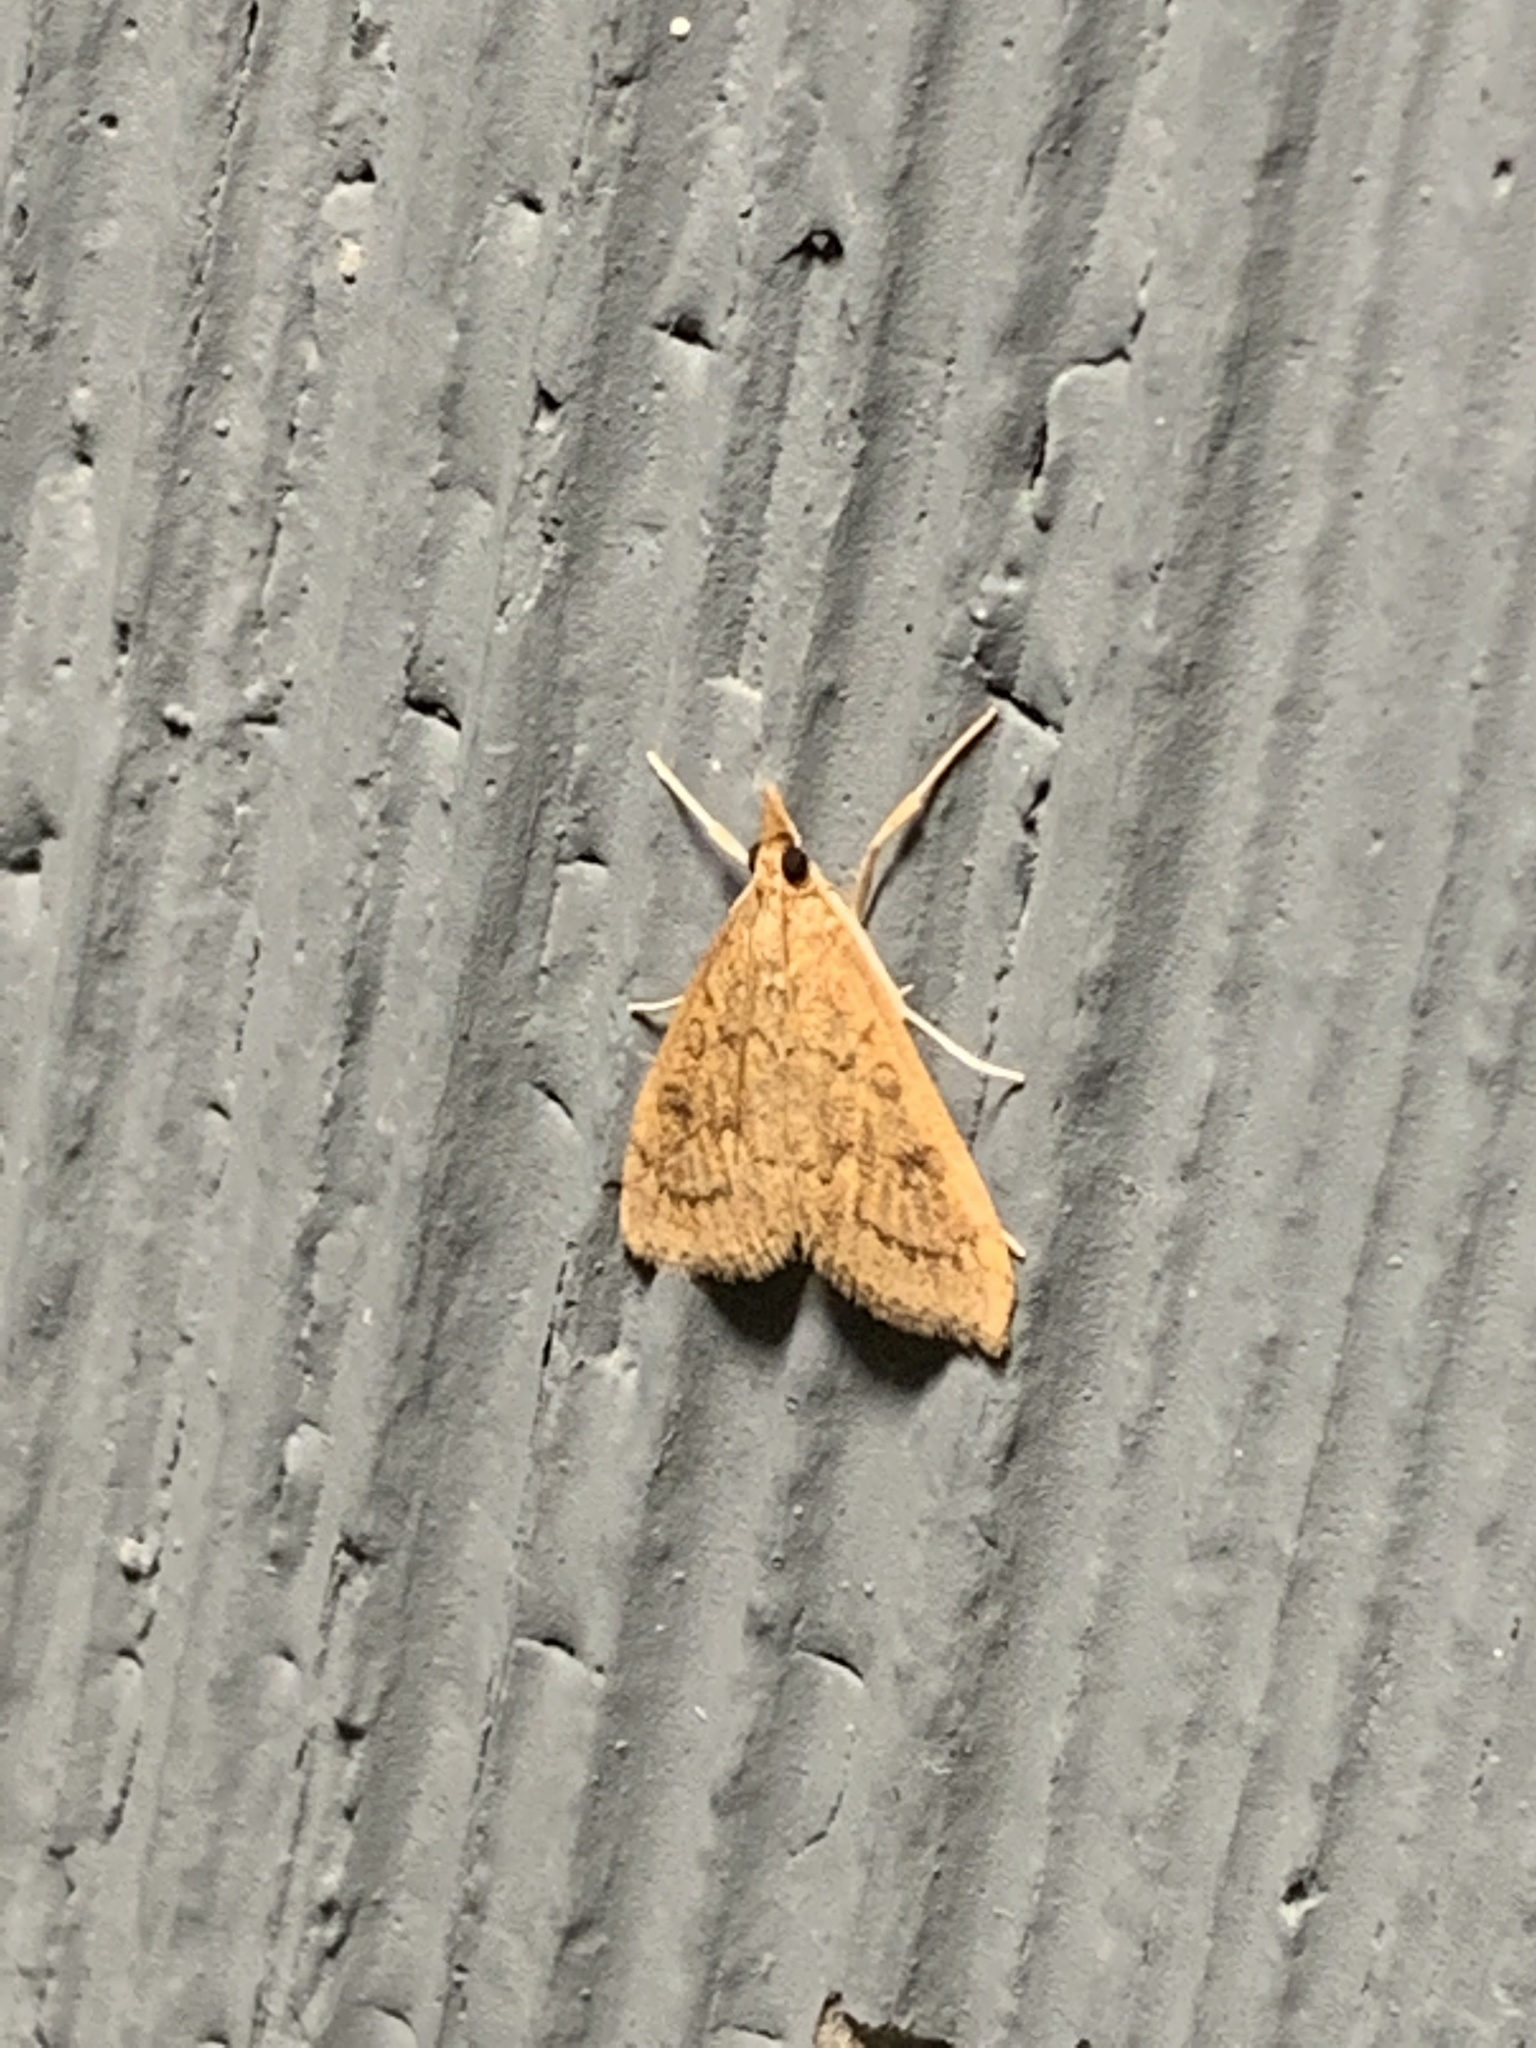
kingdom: Animalia
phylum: Arthropoda
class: Insecta
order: Lepidoptera
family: Crambidae
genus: Udea
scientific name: Udea rubigalis
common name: Celery leaftier moth
